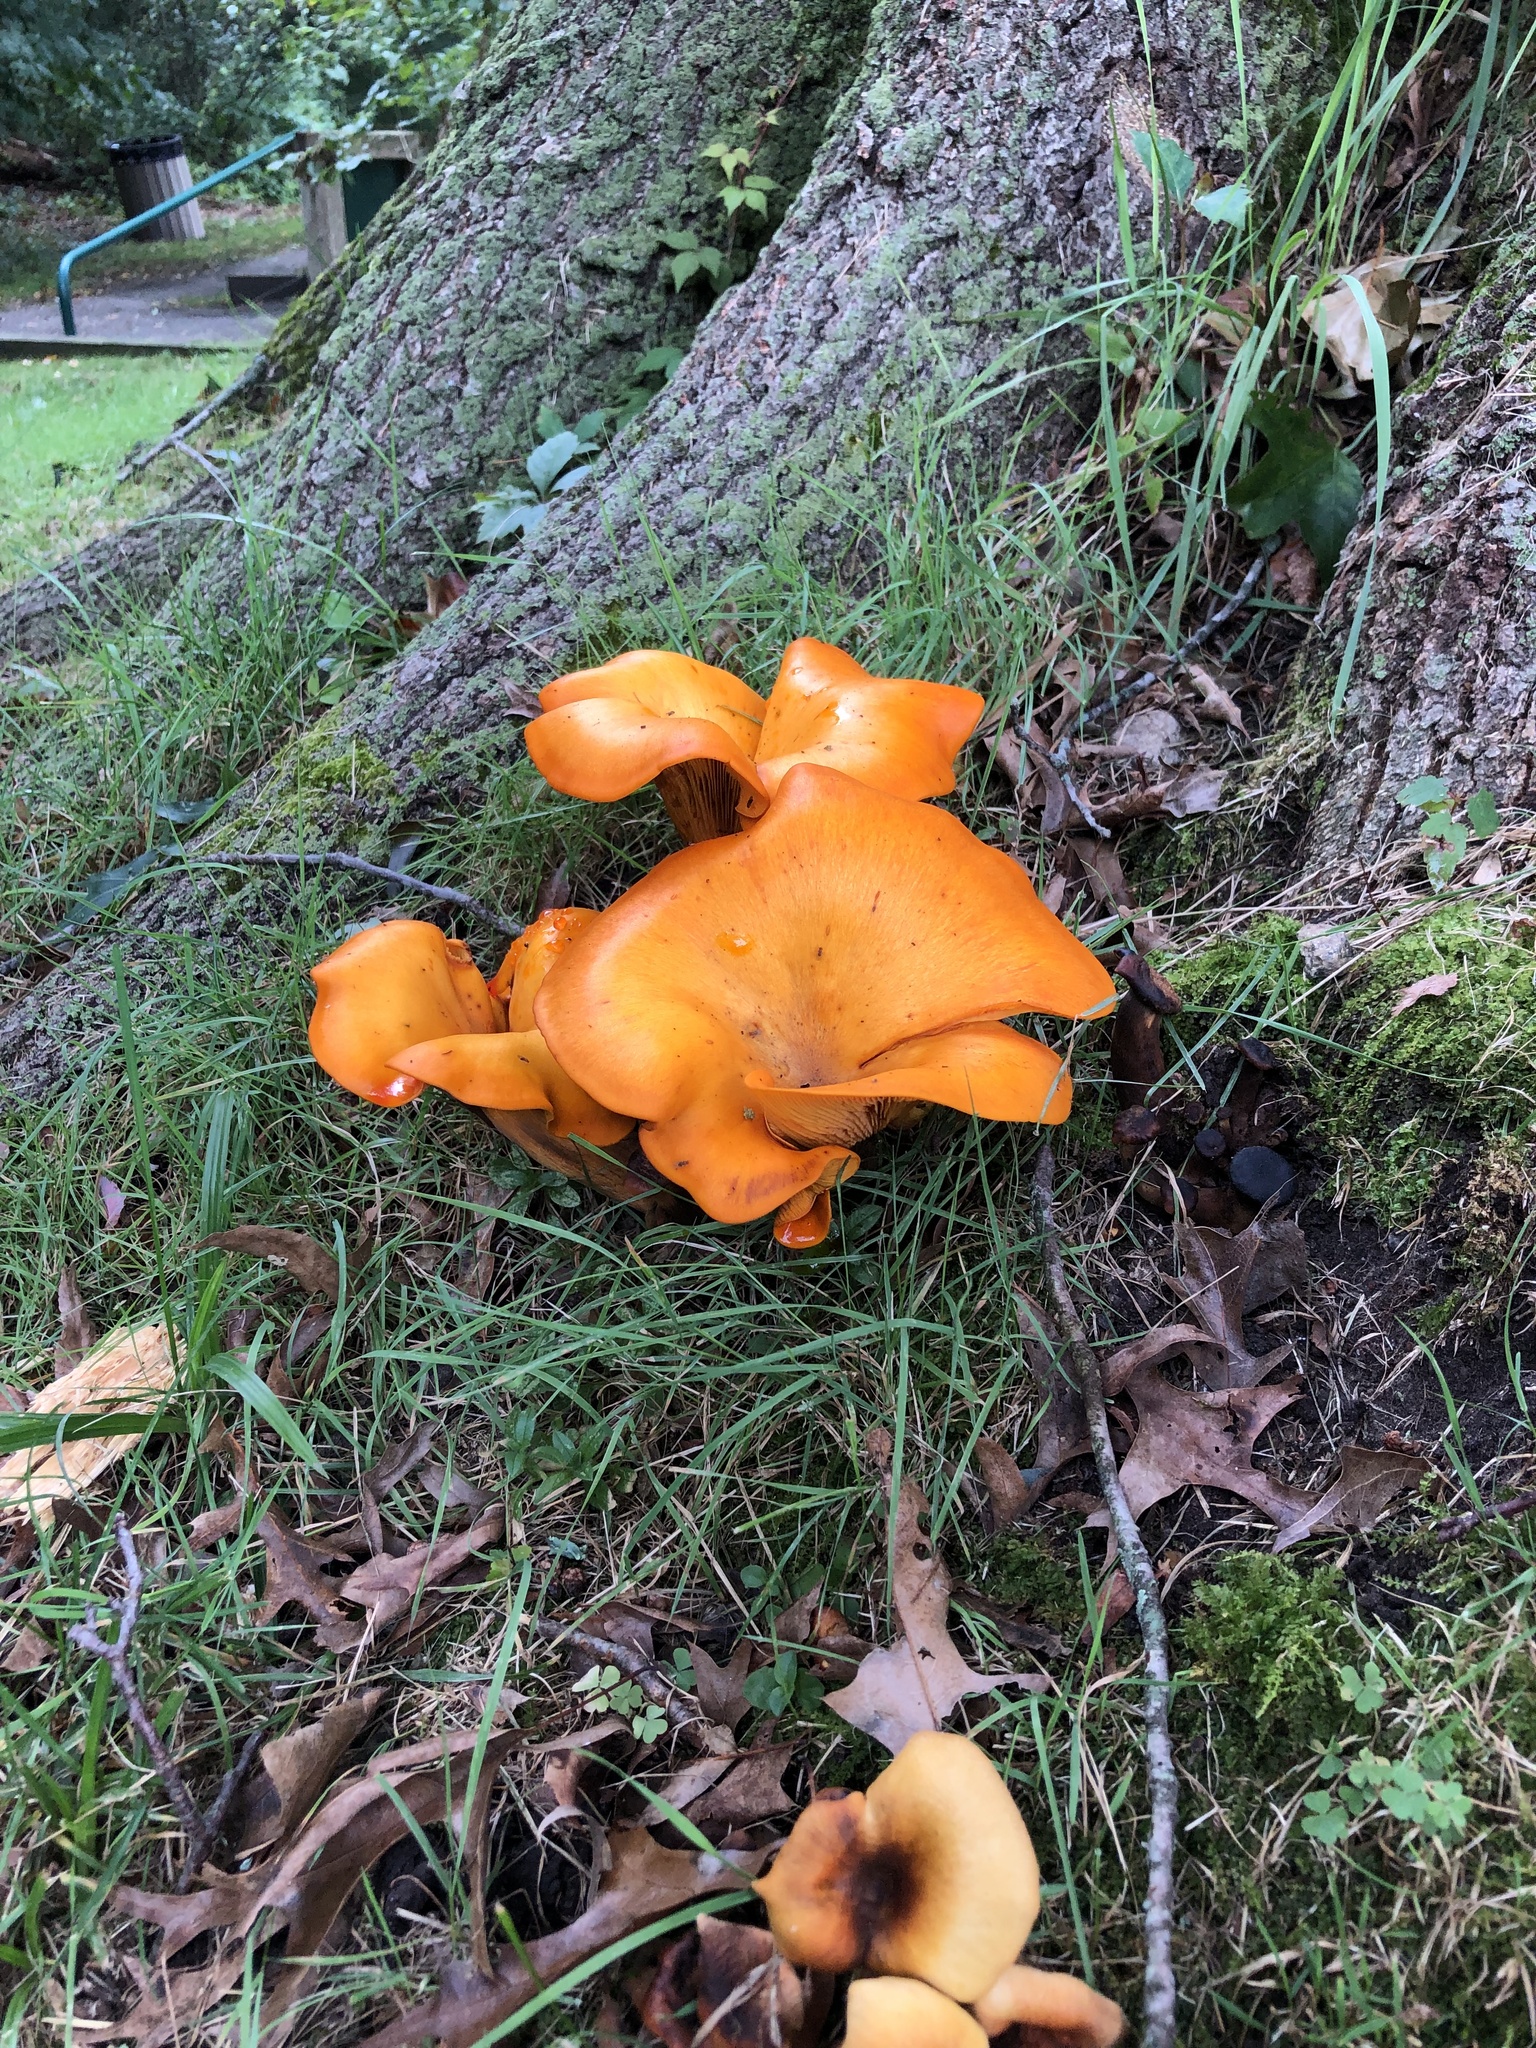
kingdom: Fungi
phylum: Basidiomycota
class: Agaricomycetes
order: Agaricales
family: Omphalotaceae
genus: Omphalotus
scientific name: Omphalotus illudens
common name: Jack o lantern
